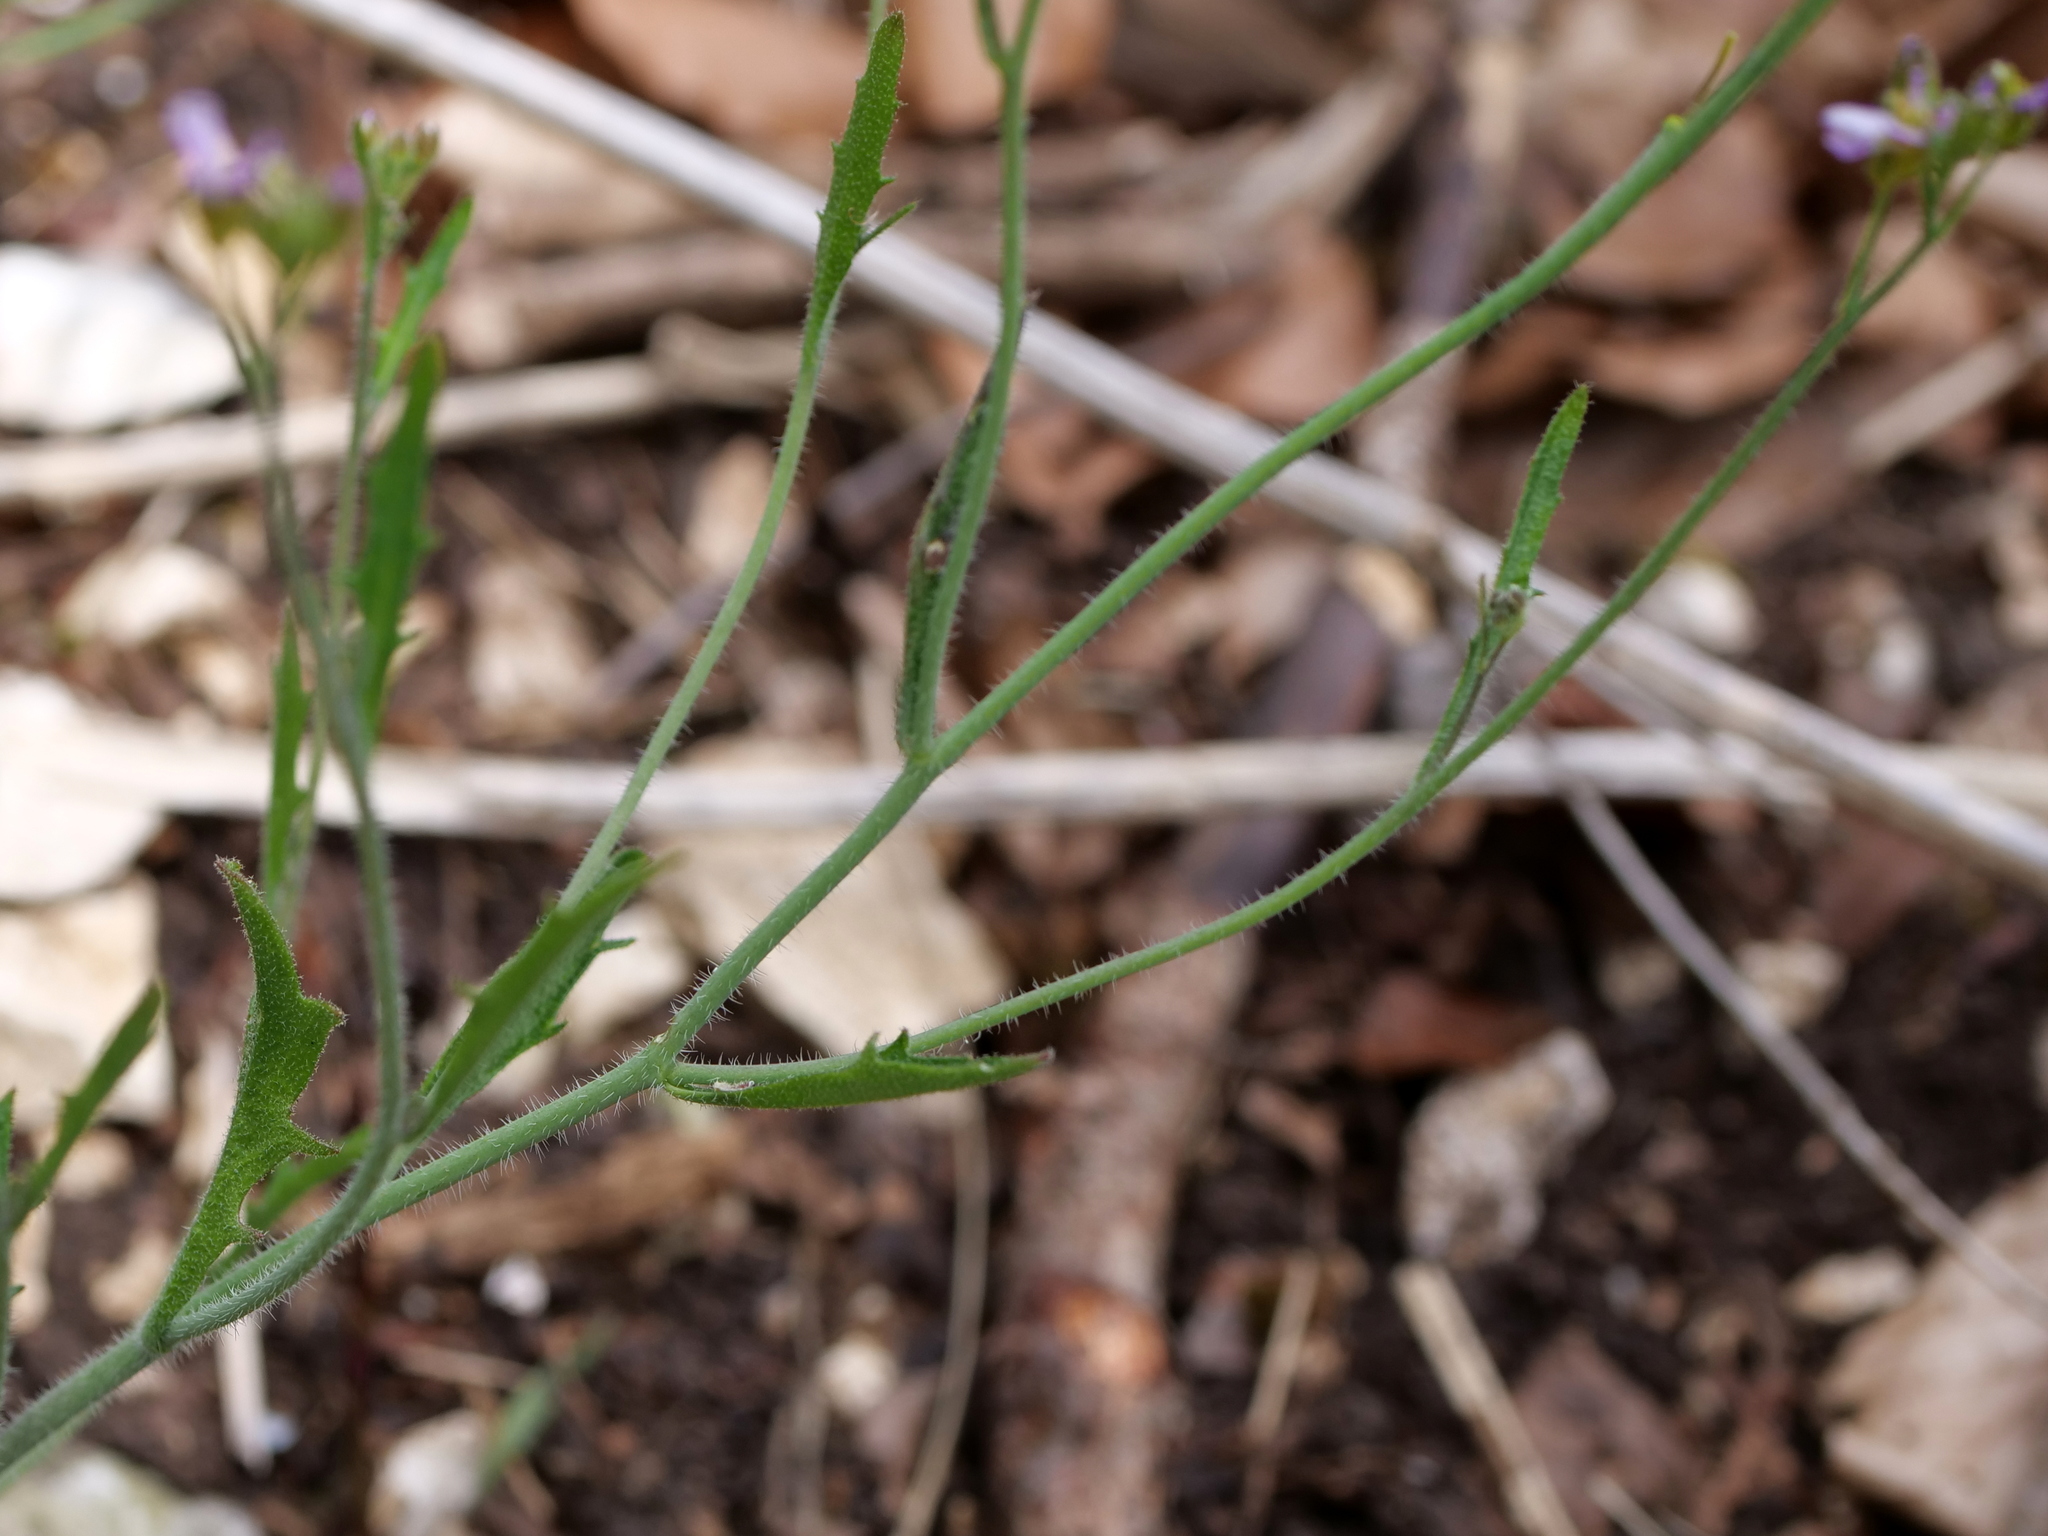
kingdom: Plantae
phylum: Tracheophyta
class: Magnoliopsida
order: Brassicales
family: Brassicaceae
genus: Arabidopsis
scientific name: Arabidopsis arenosa
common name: Sand rock-cress
